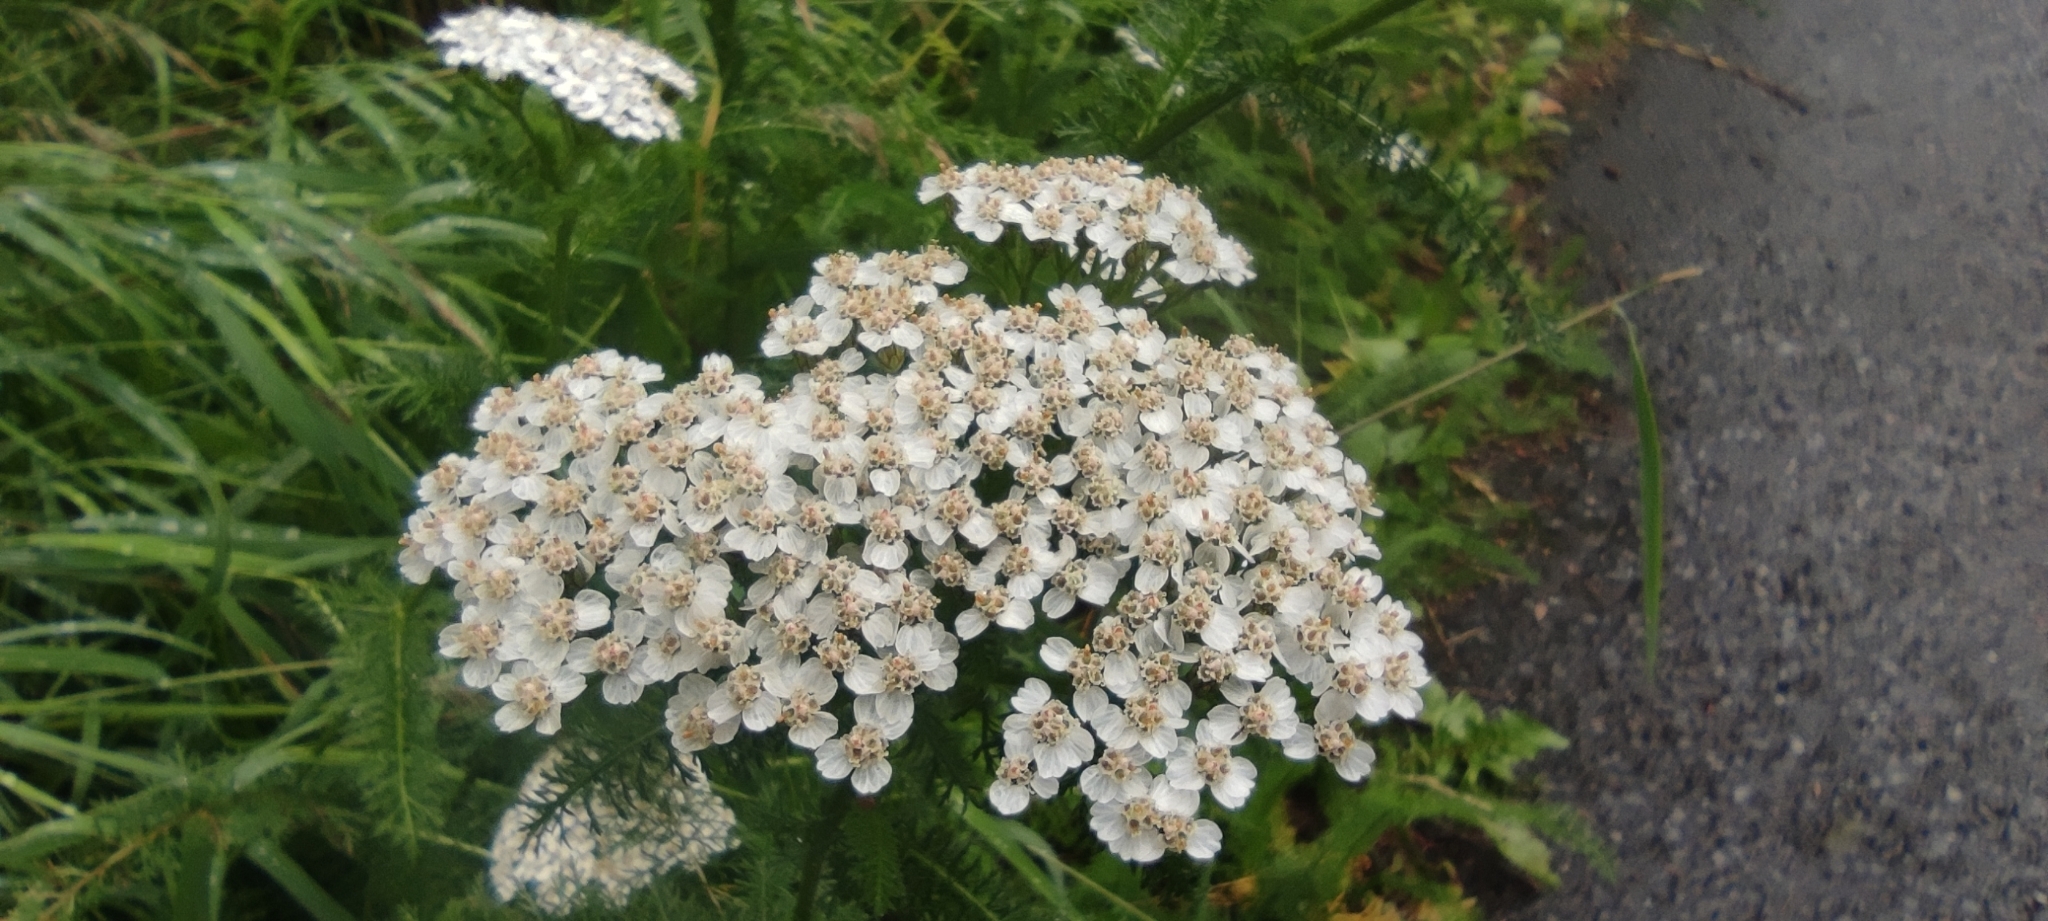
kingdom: Plantae
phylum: Tracheophyta
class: Magnoliopsida
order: Asterales
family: Asteraceae
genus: Achillea
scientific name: Achillea millefolium
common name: Yarrow
